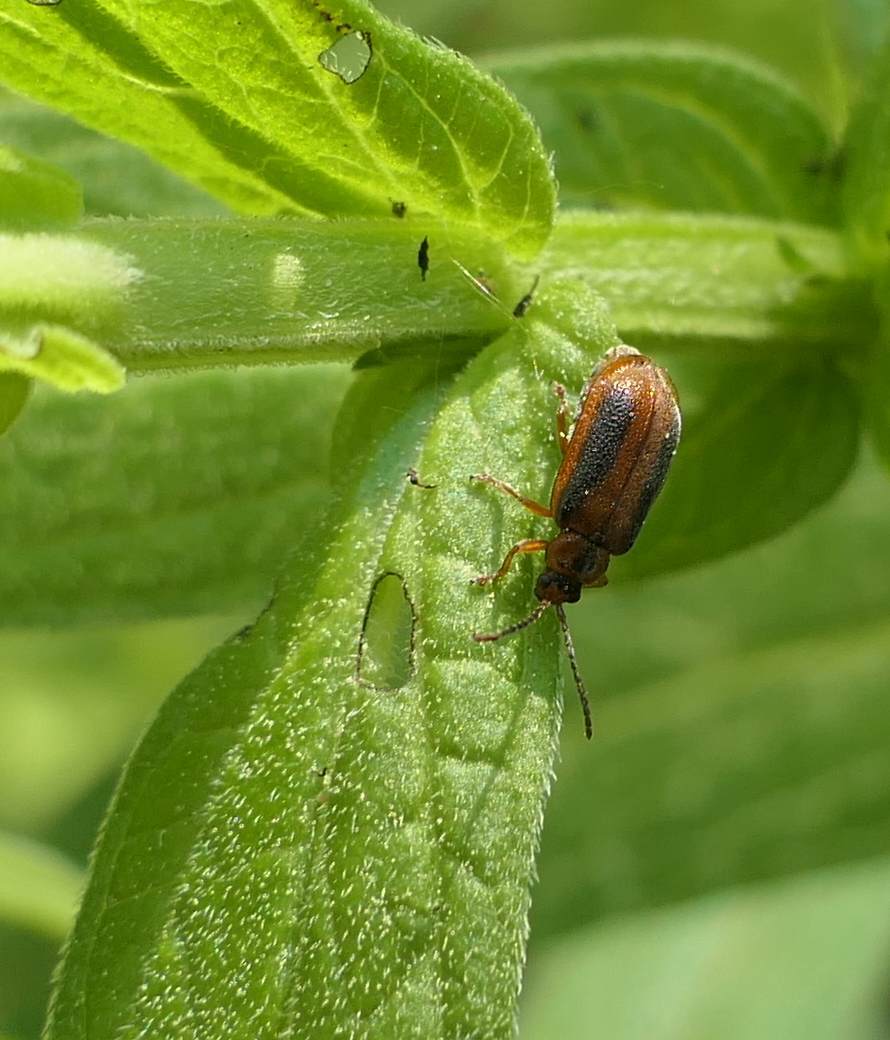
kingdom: Animalia
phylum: Arthropoda
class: Insecta
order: Coleoptera
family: Chrysomelidae
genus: Neogalerucella
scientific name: Neogalerucella calmariensis
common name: Black-margined loosestrife beetle
